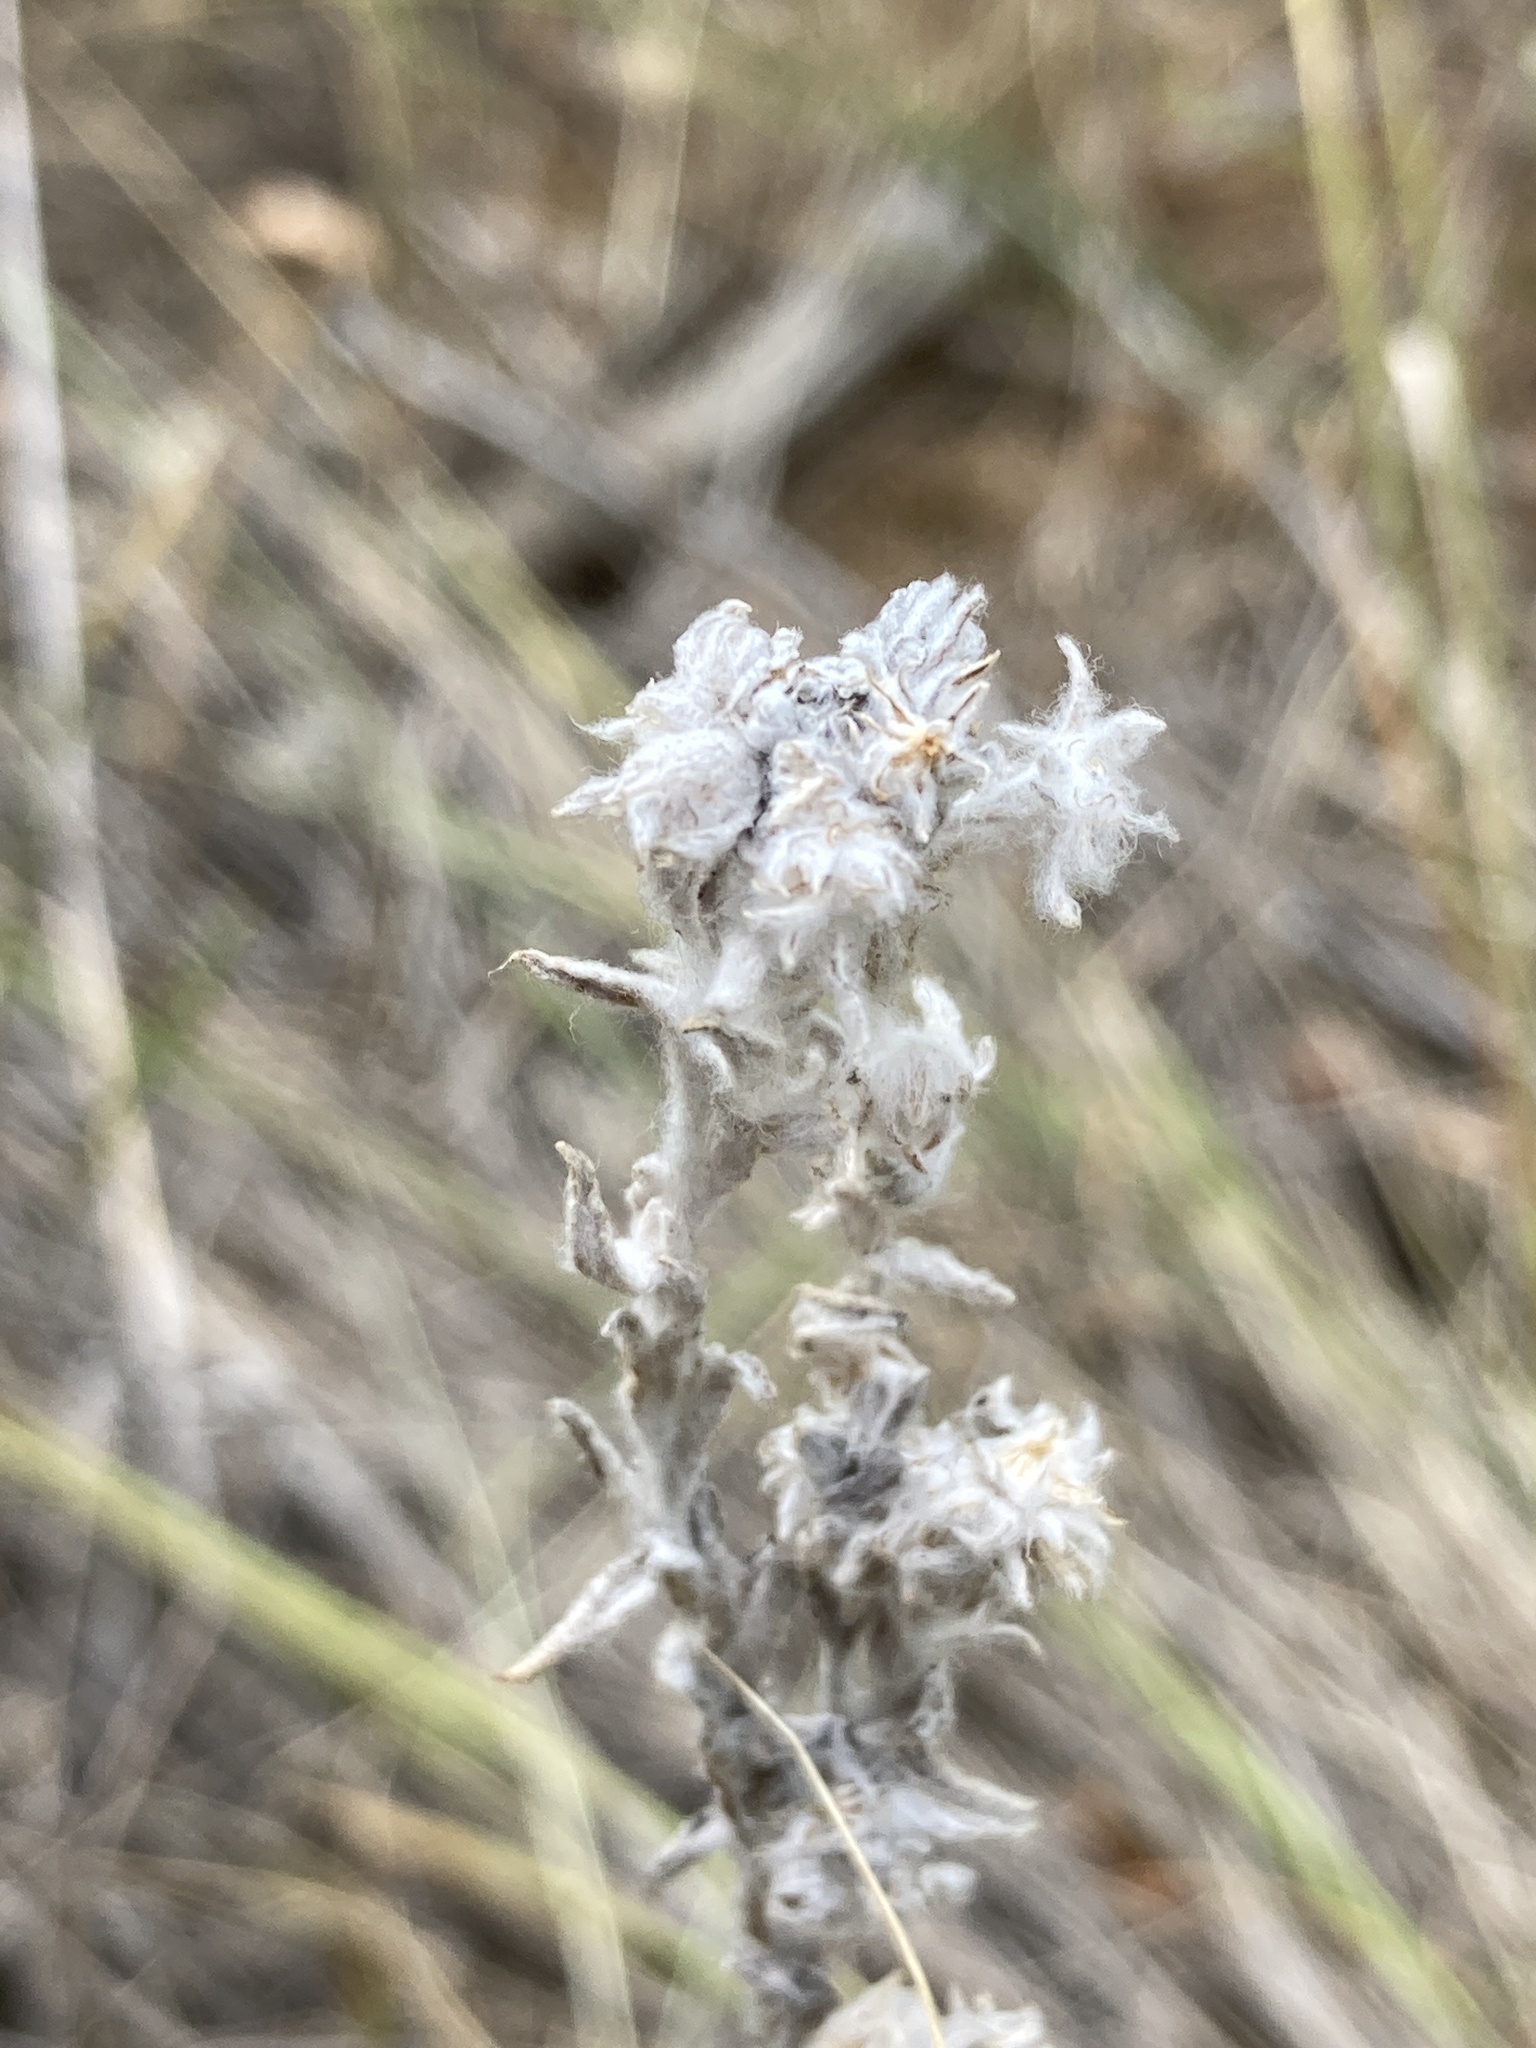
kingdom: Plantae
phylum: Tracheophyta
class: Magnoliopsida
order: Asterales
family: Asteraceae
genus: Filago
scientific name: Filago arvensis
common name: Field cudweed
